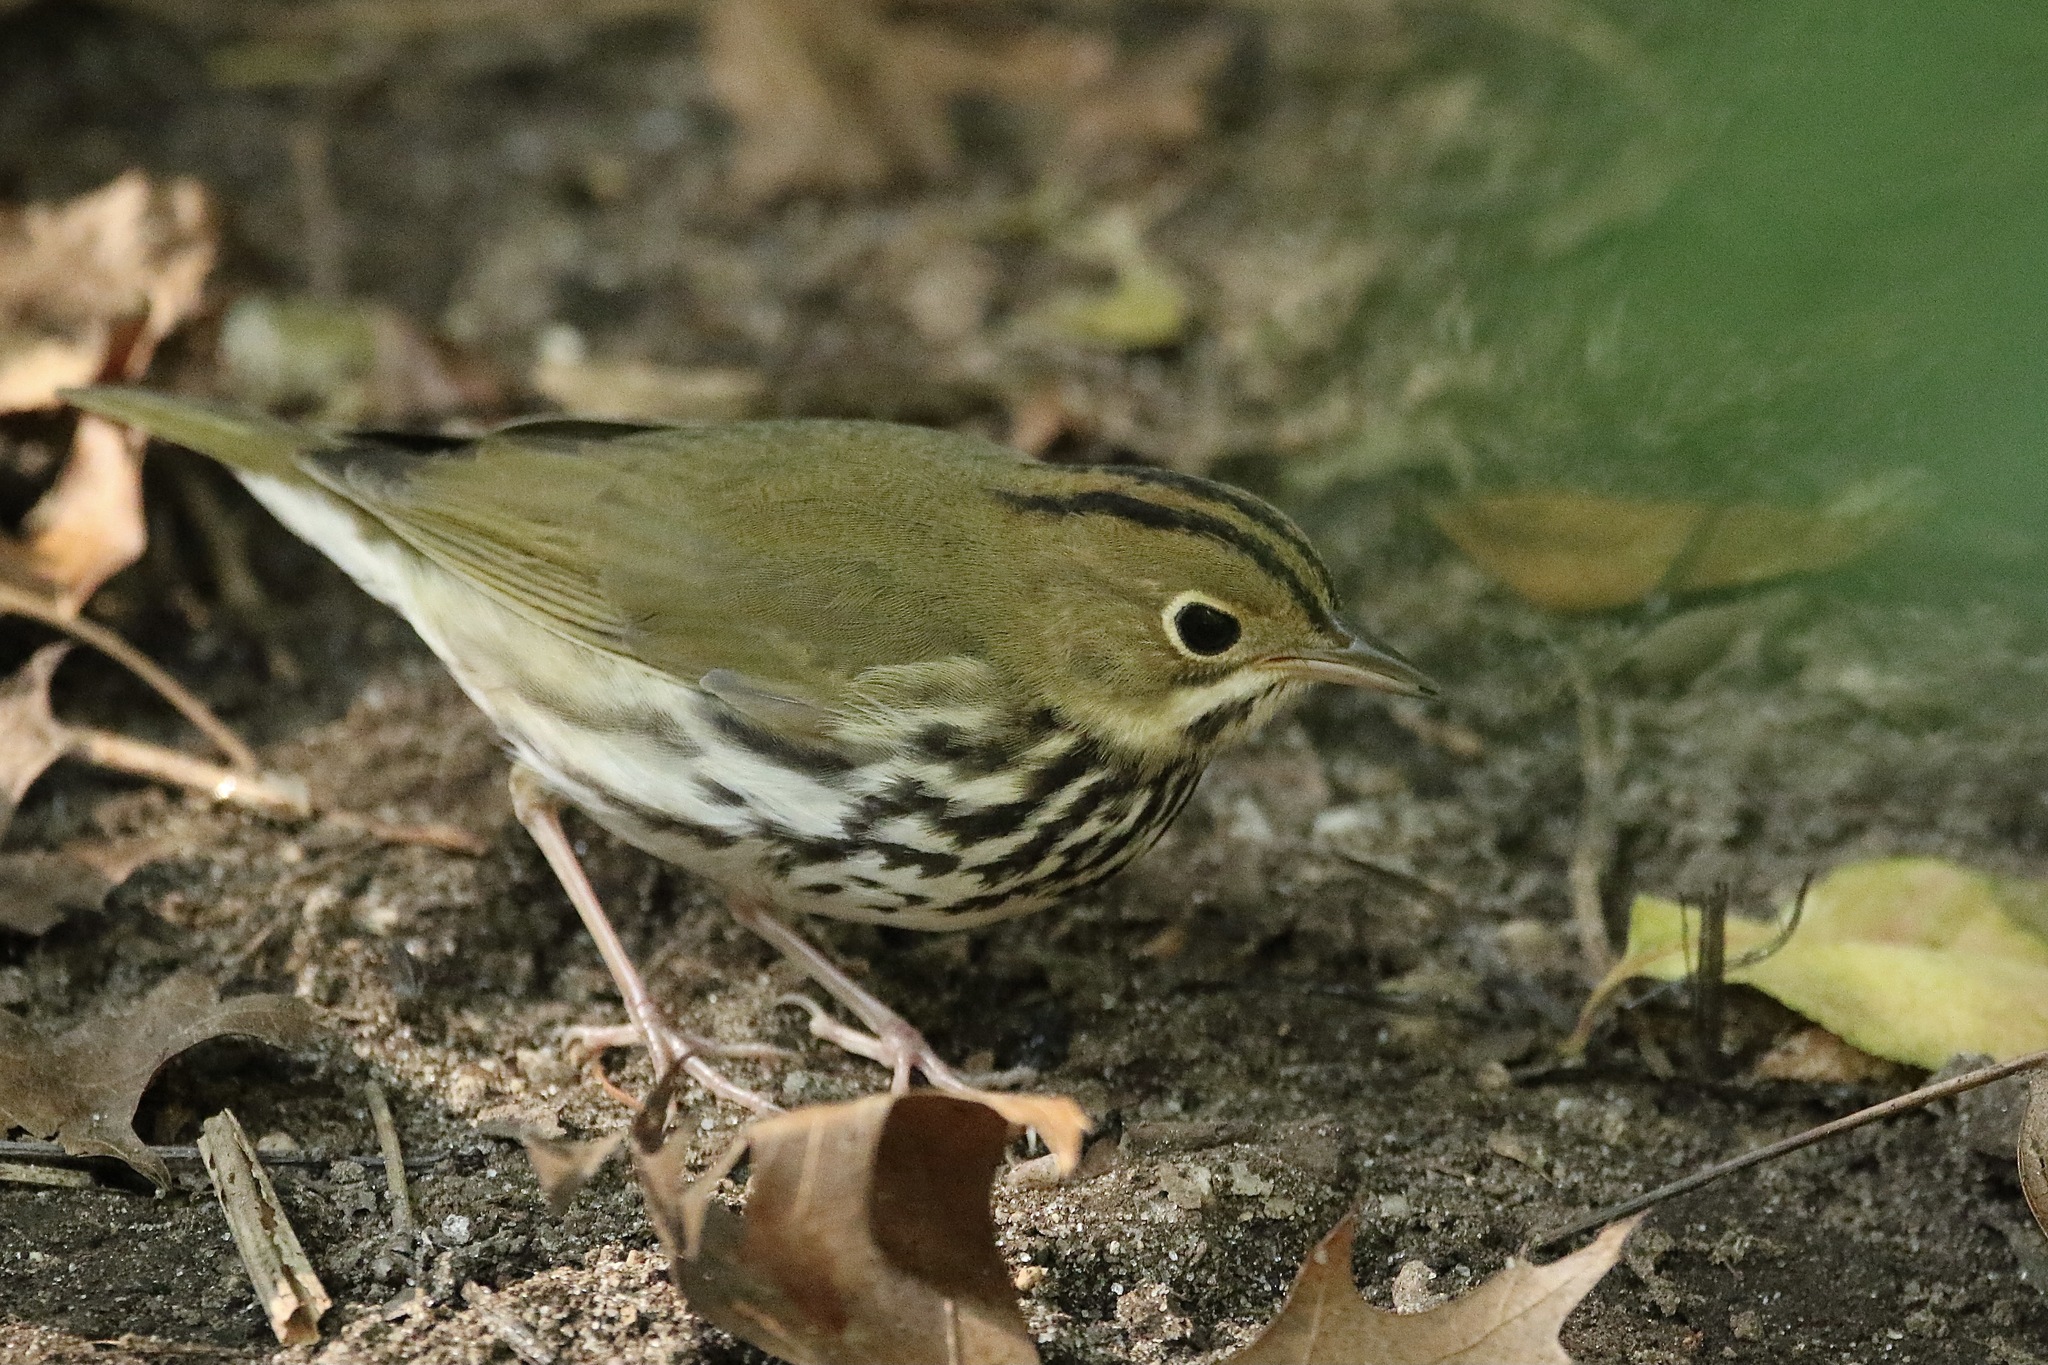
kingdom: Animalia
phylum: Chordata
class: Aves
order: Passeriformes
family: Parulidae
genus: Seiurus
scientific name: Seiurus aurocapilla
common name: Ovenbird
